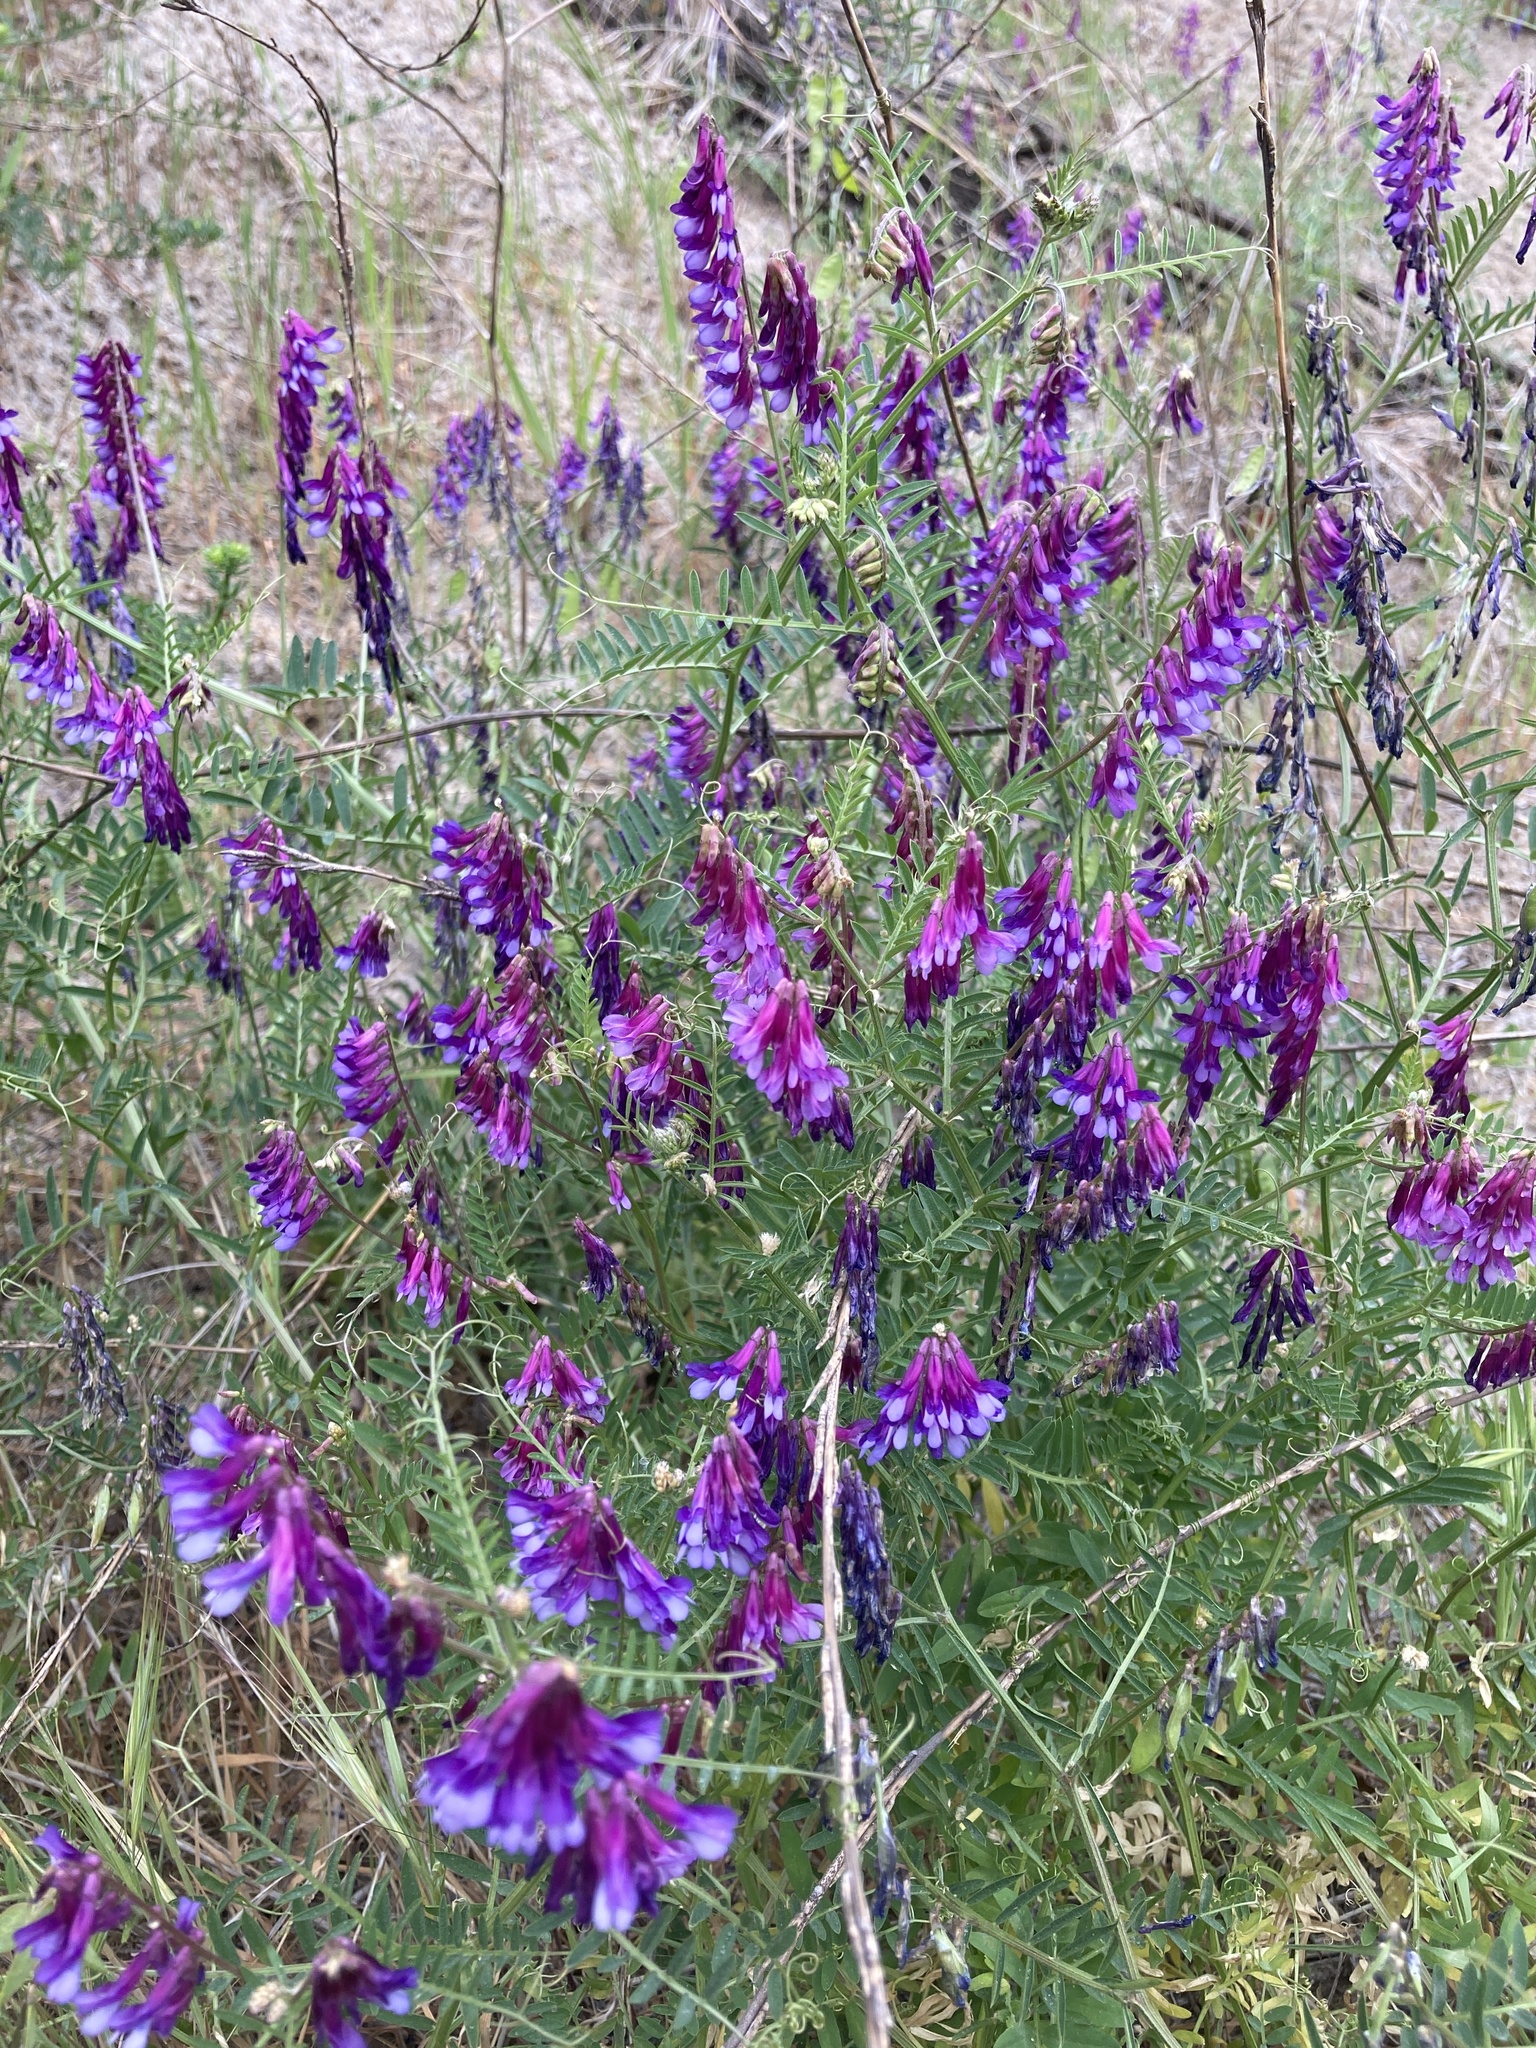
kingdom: Plantae
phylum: Tracheophyta
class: Magnoliopsida
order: Fabales
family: Fabaceae
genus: Vicia
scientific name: Vicia villosa
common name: Fodder vetch
